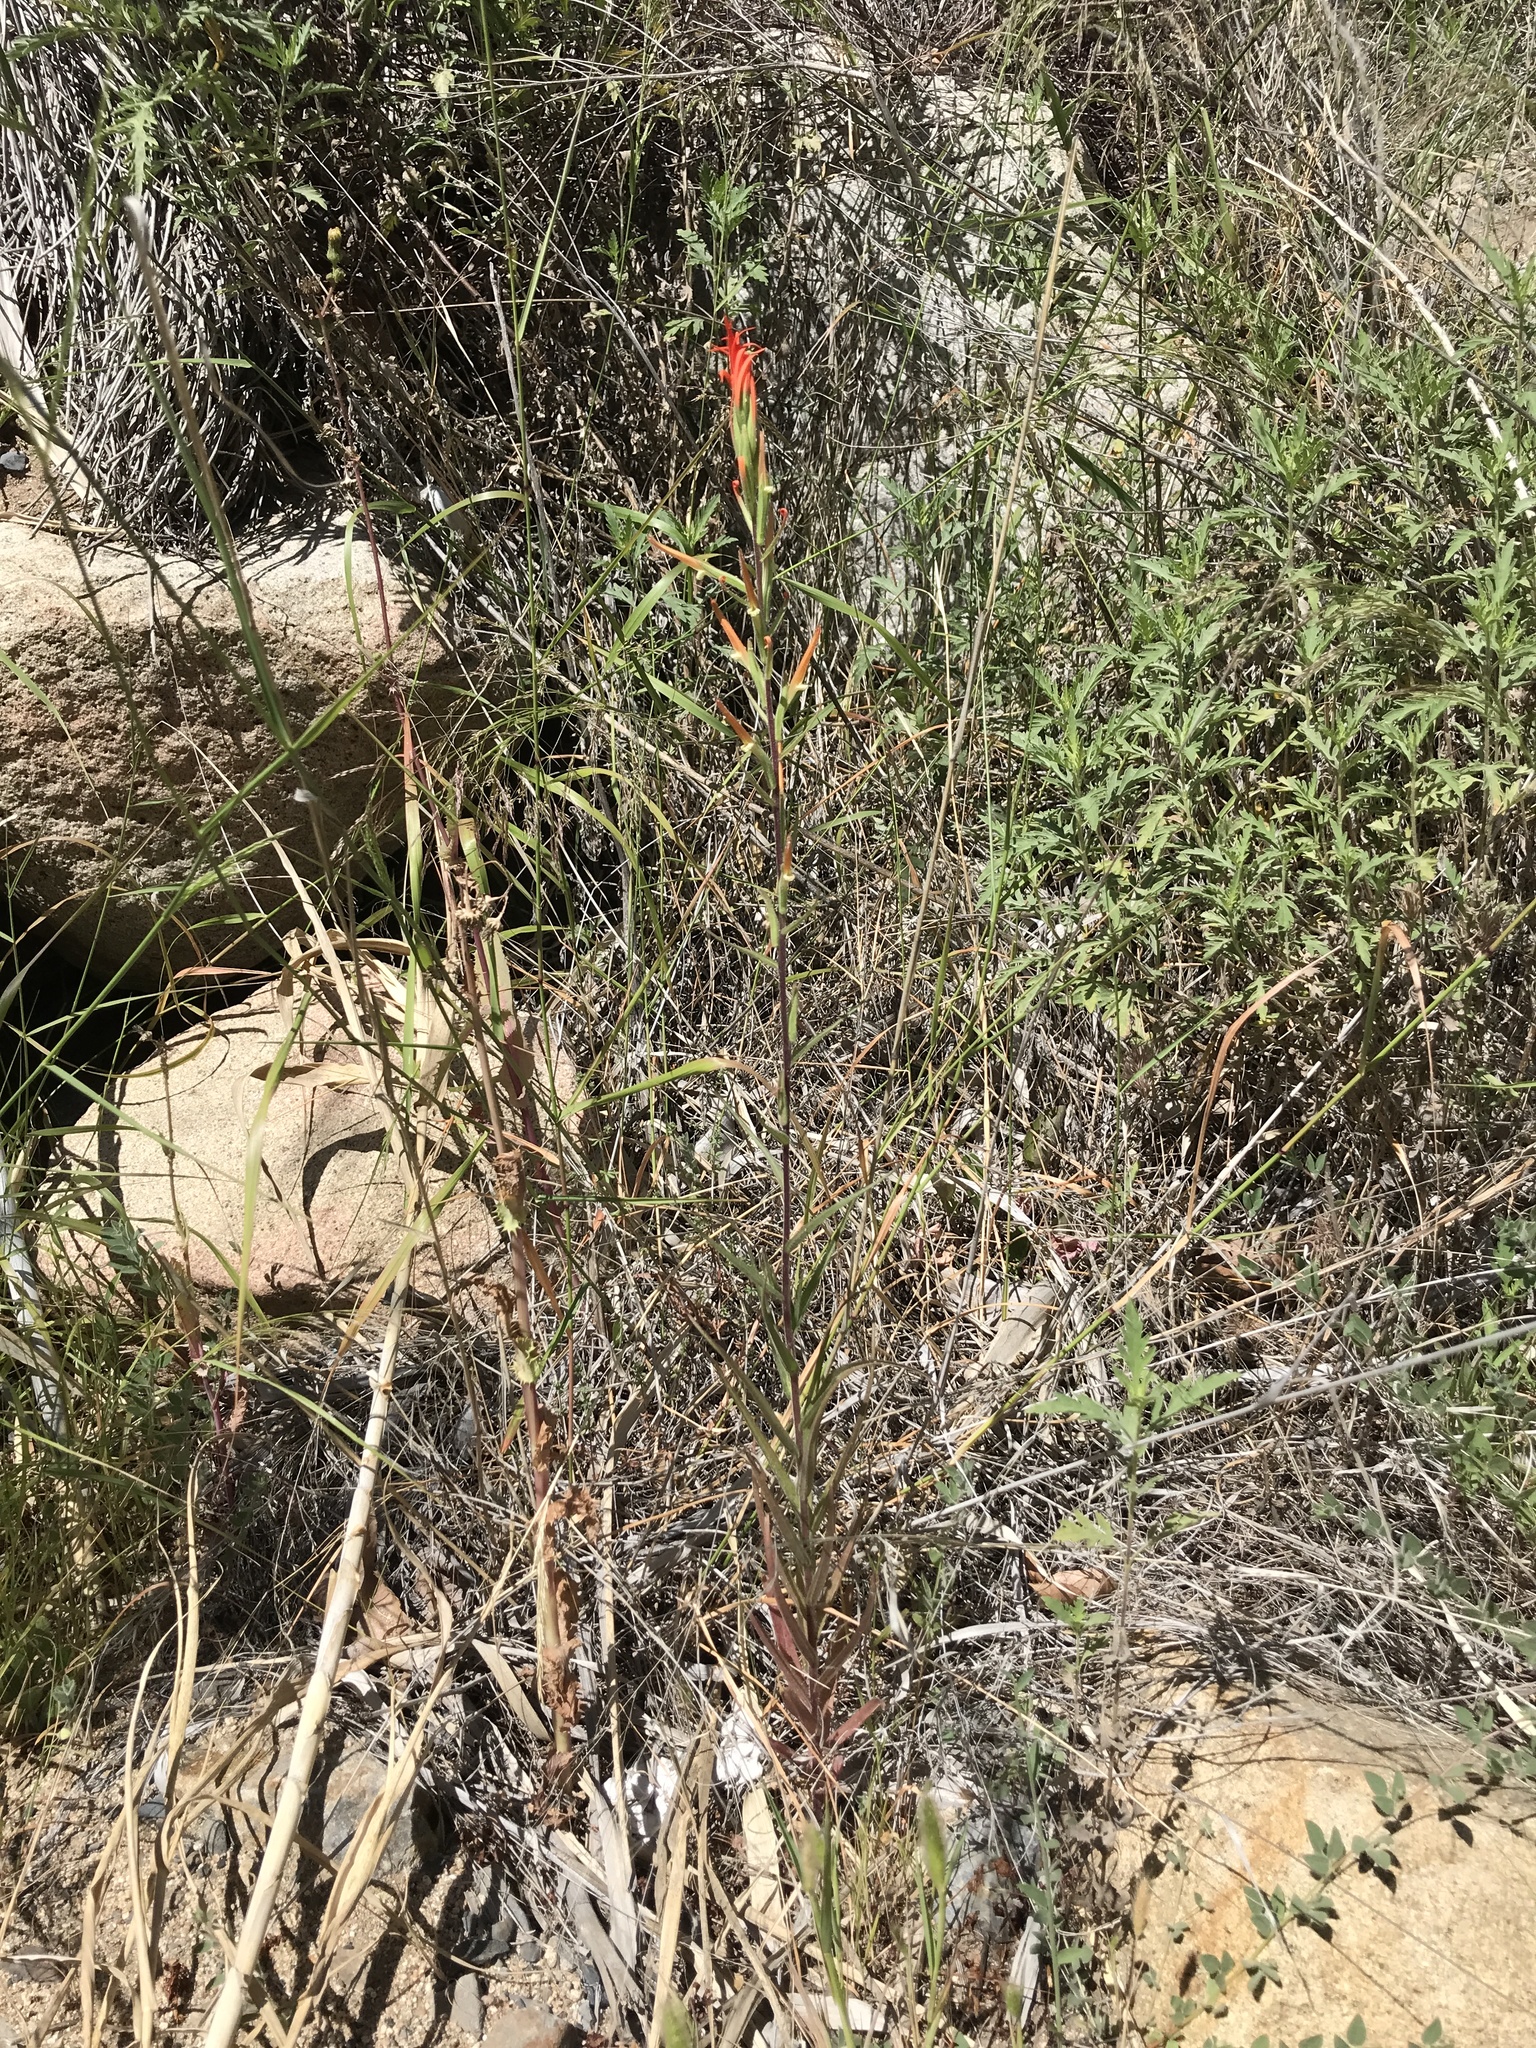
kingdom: Plantae
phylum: Tracheophyta
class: Magnoliopsida
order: Lamiales
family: Orobanchaceae
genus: Castilleja
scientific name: Castilleja minor
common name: Seep paintbrush
